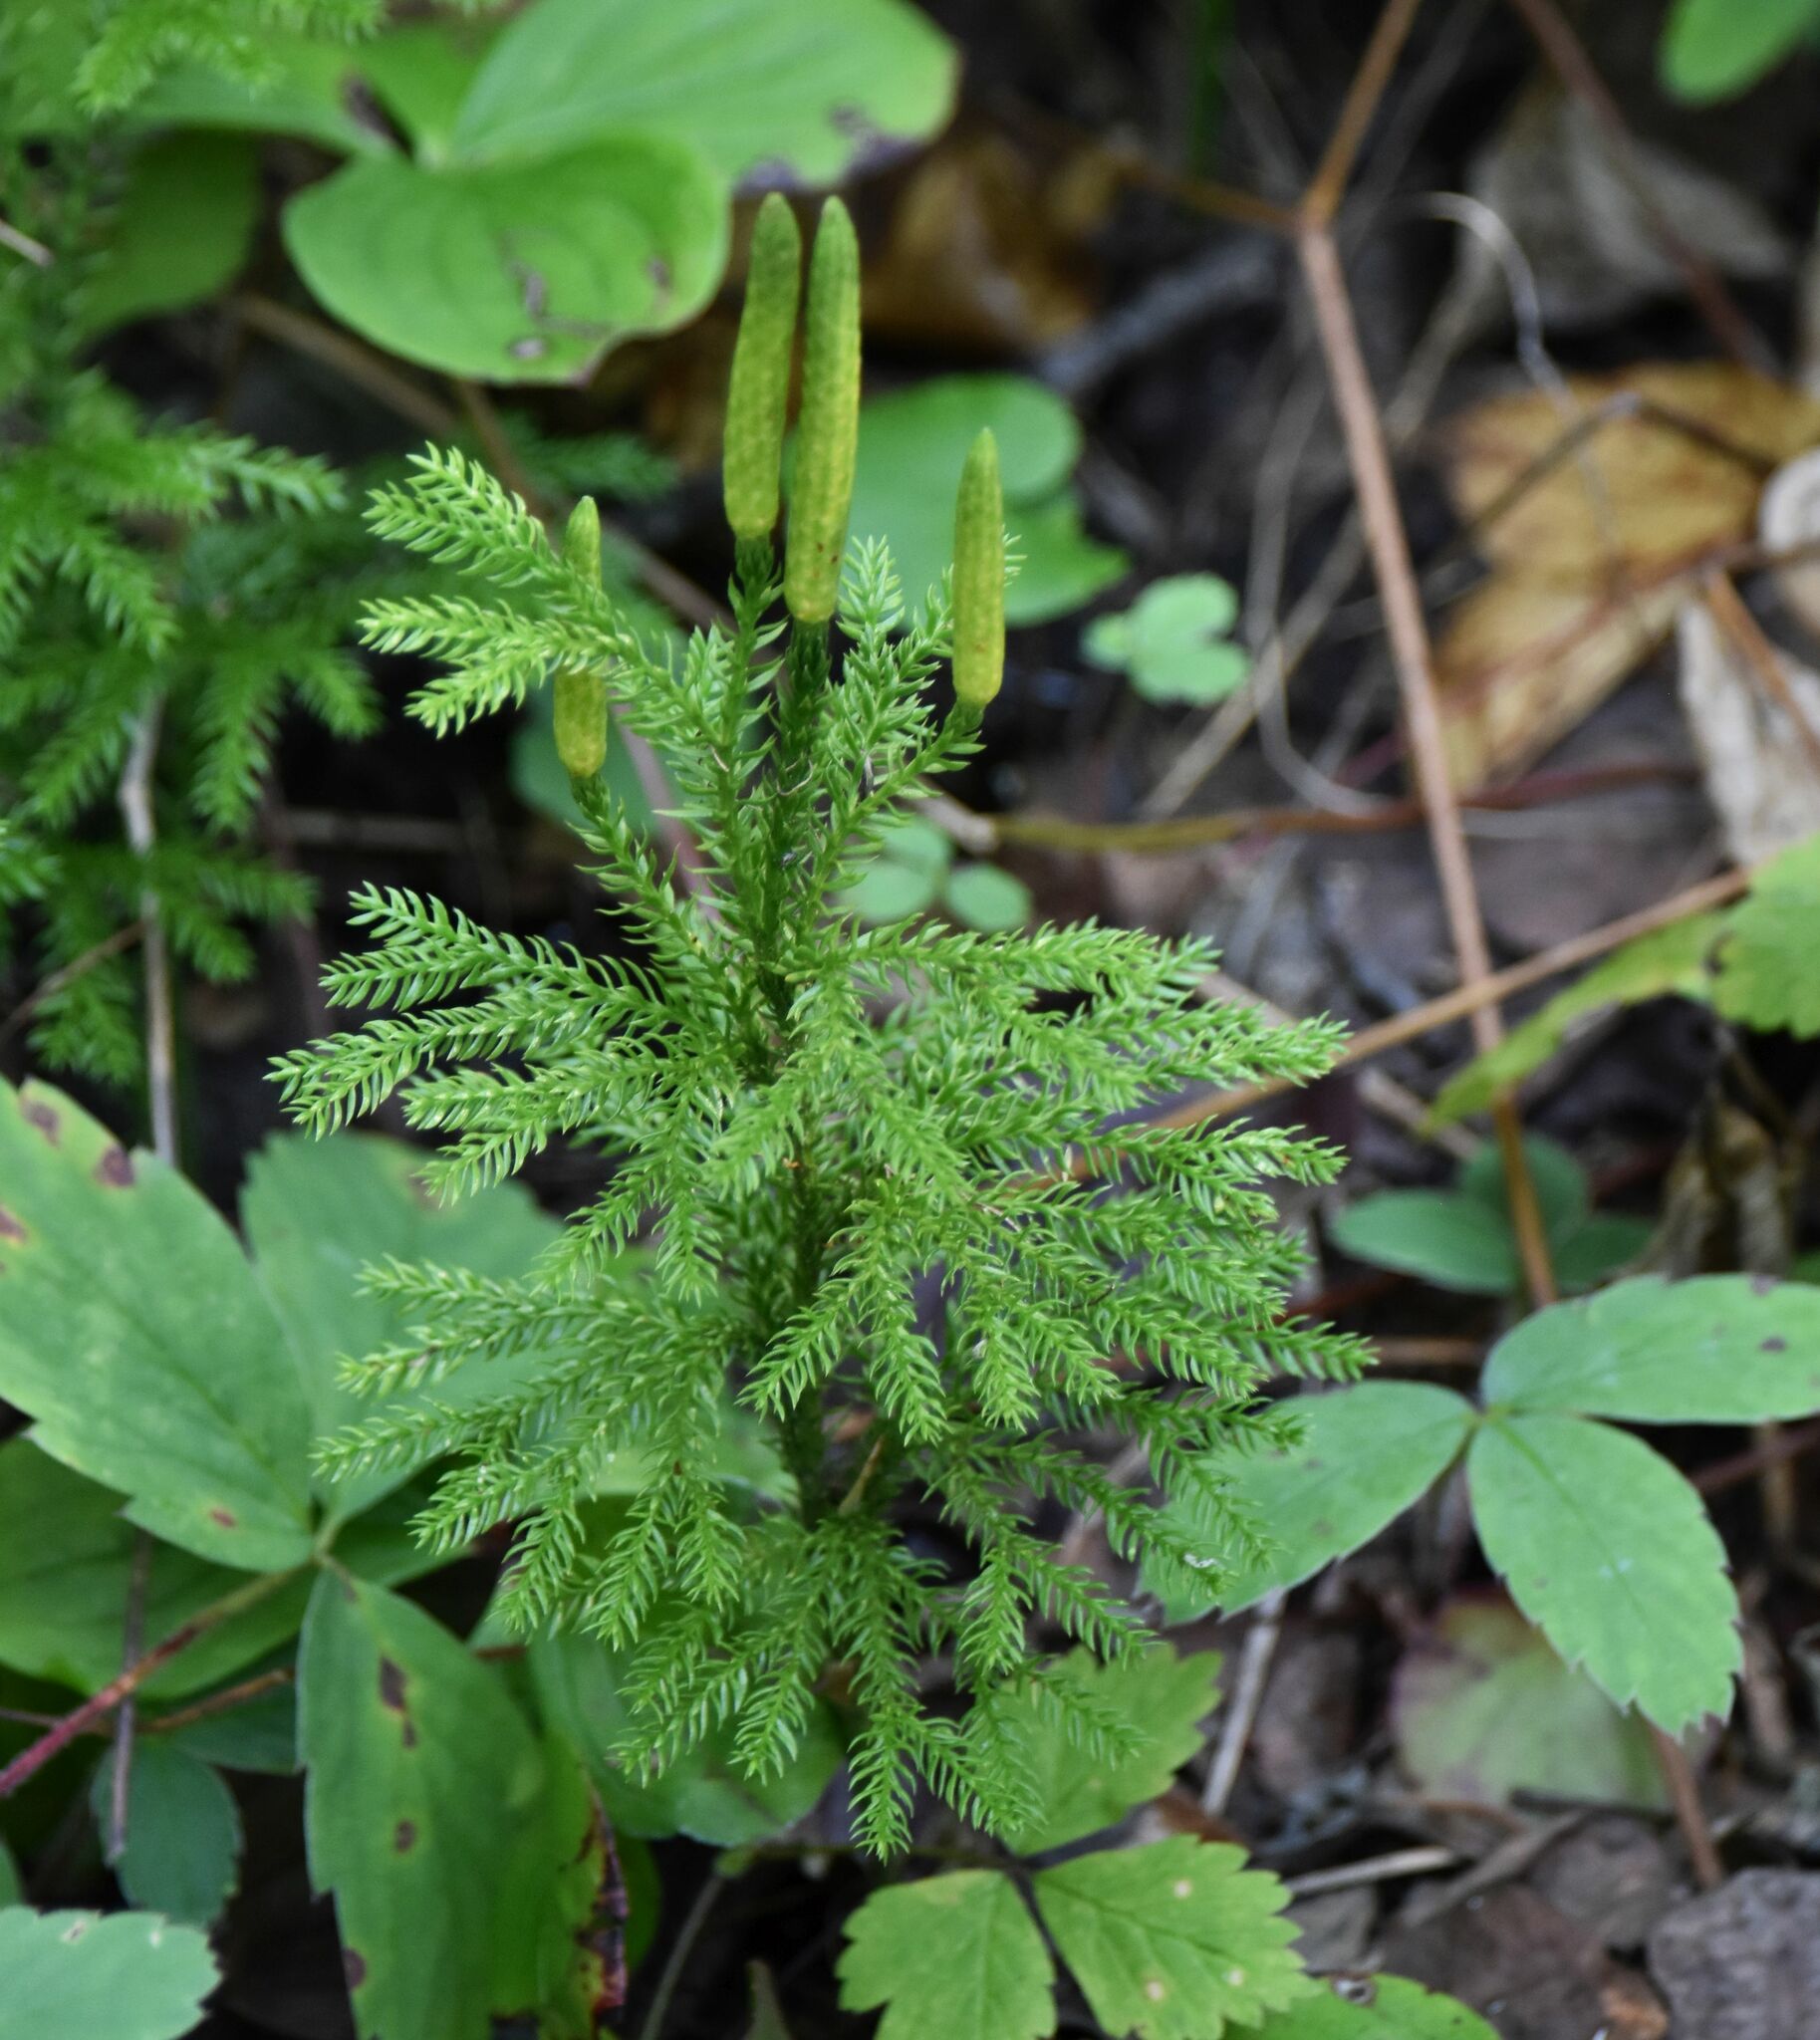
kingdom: Plantae
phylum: Tracheophyta
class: Lycopodiopsida
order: Lycopodiales
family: Lycopodiaceae
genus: Dendrolycopodium
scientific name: Dendrolycopodium dendroideum
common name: Northern tree-clubmoss
